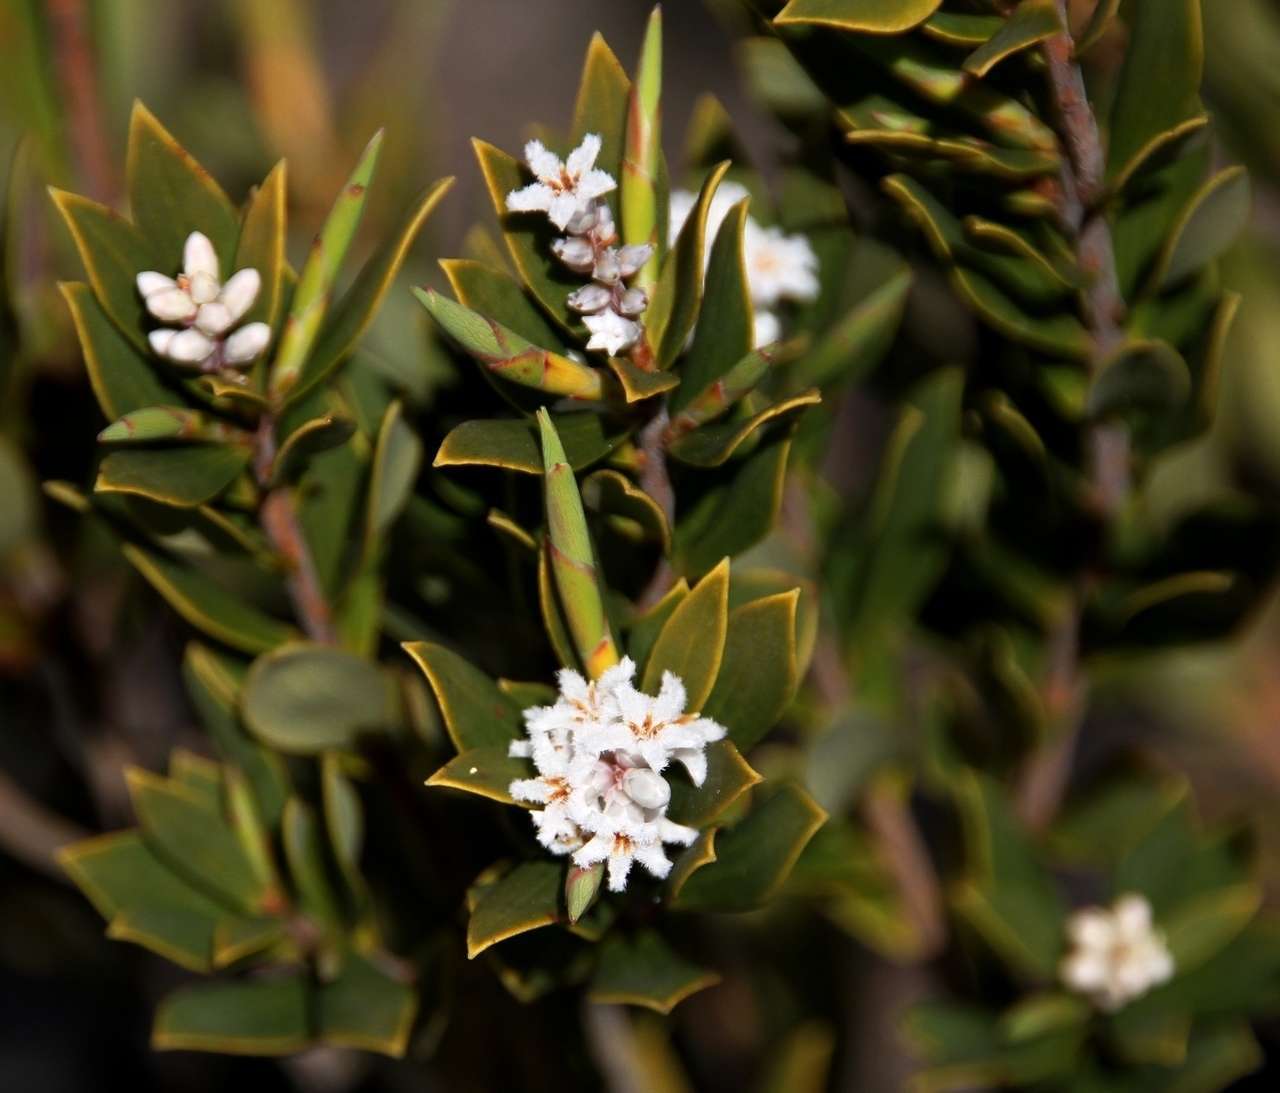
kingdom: Plantae
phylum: Tracheophyta
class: Magnoliopsida
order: Ericales
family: Ericaceae
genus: Leptecophylla
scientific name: Leptecophylla parvifolia
